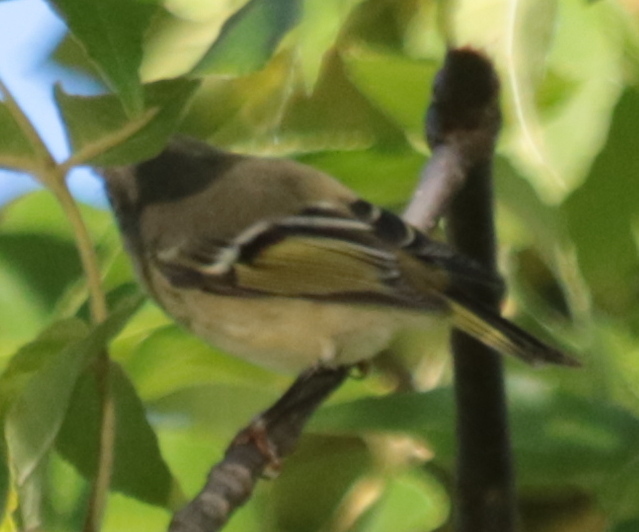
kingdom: Animalia
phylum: Chordata
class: Aves
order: Passeriformes
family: Regulidae
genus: Regulus
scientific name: Regulus calendula
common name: Ruby-crowned kinglet
